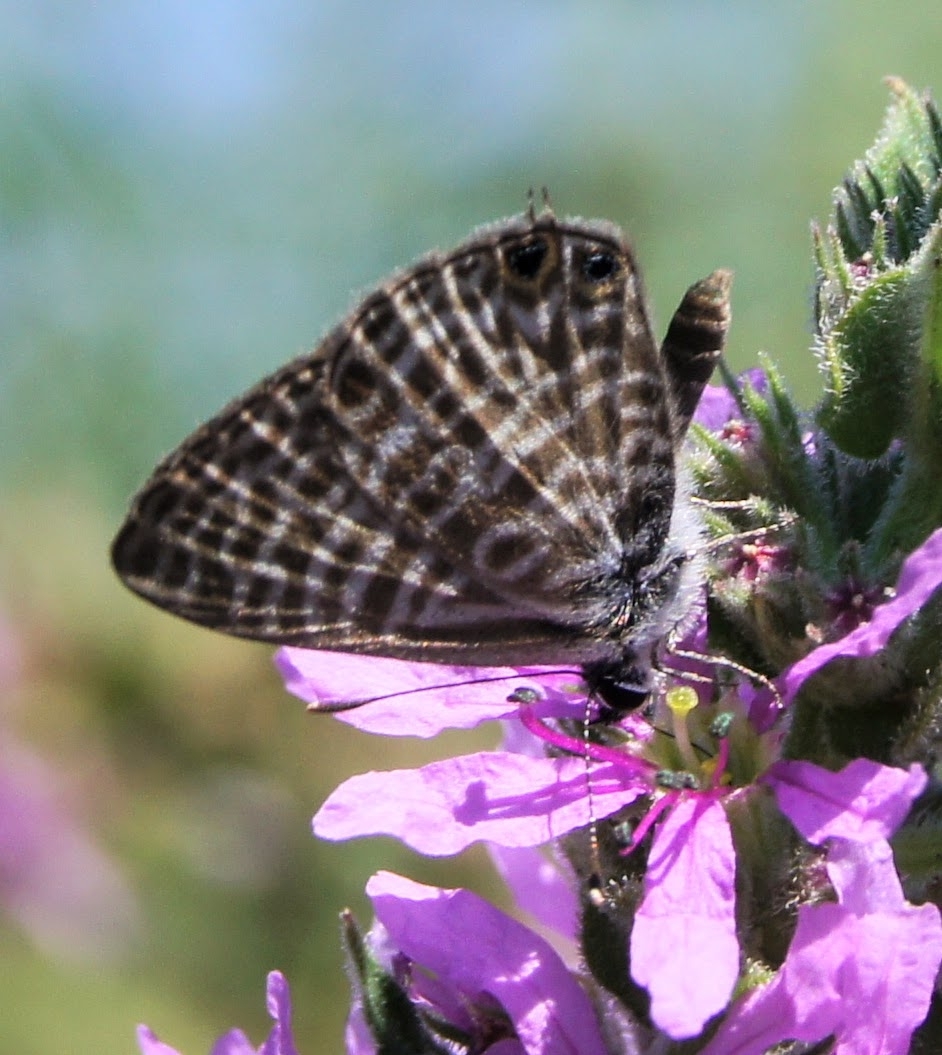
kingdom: Animalia
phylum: Arthropoda
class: Insecta
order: Lepidoptera
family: Lycaenidae
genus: Leptotes
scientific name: Leptotes pirithous
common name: Lang's short-tailed blue
